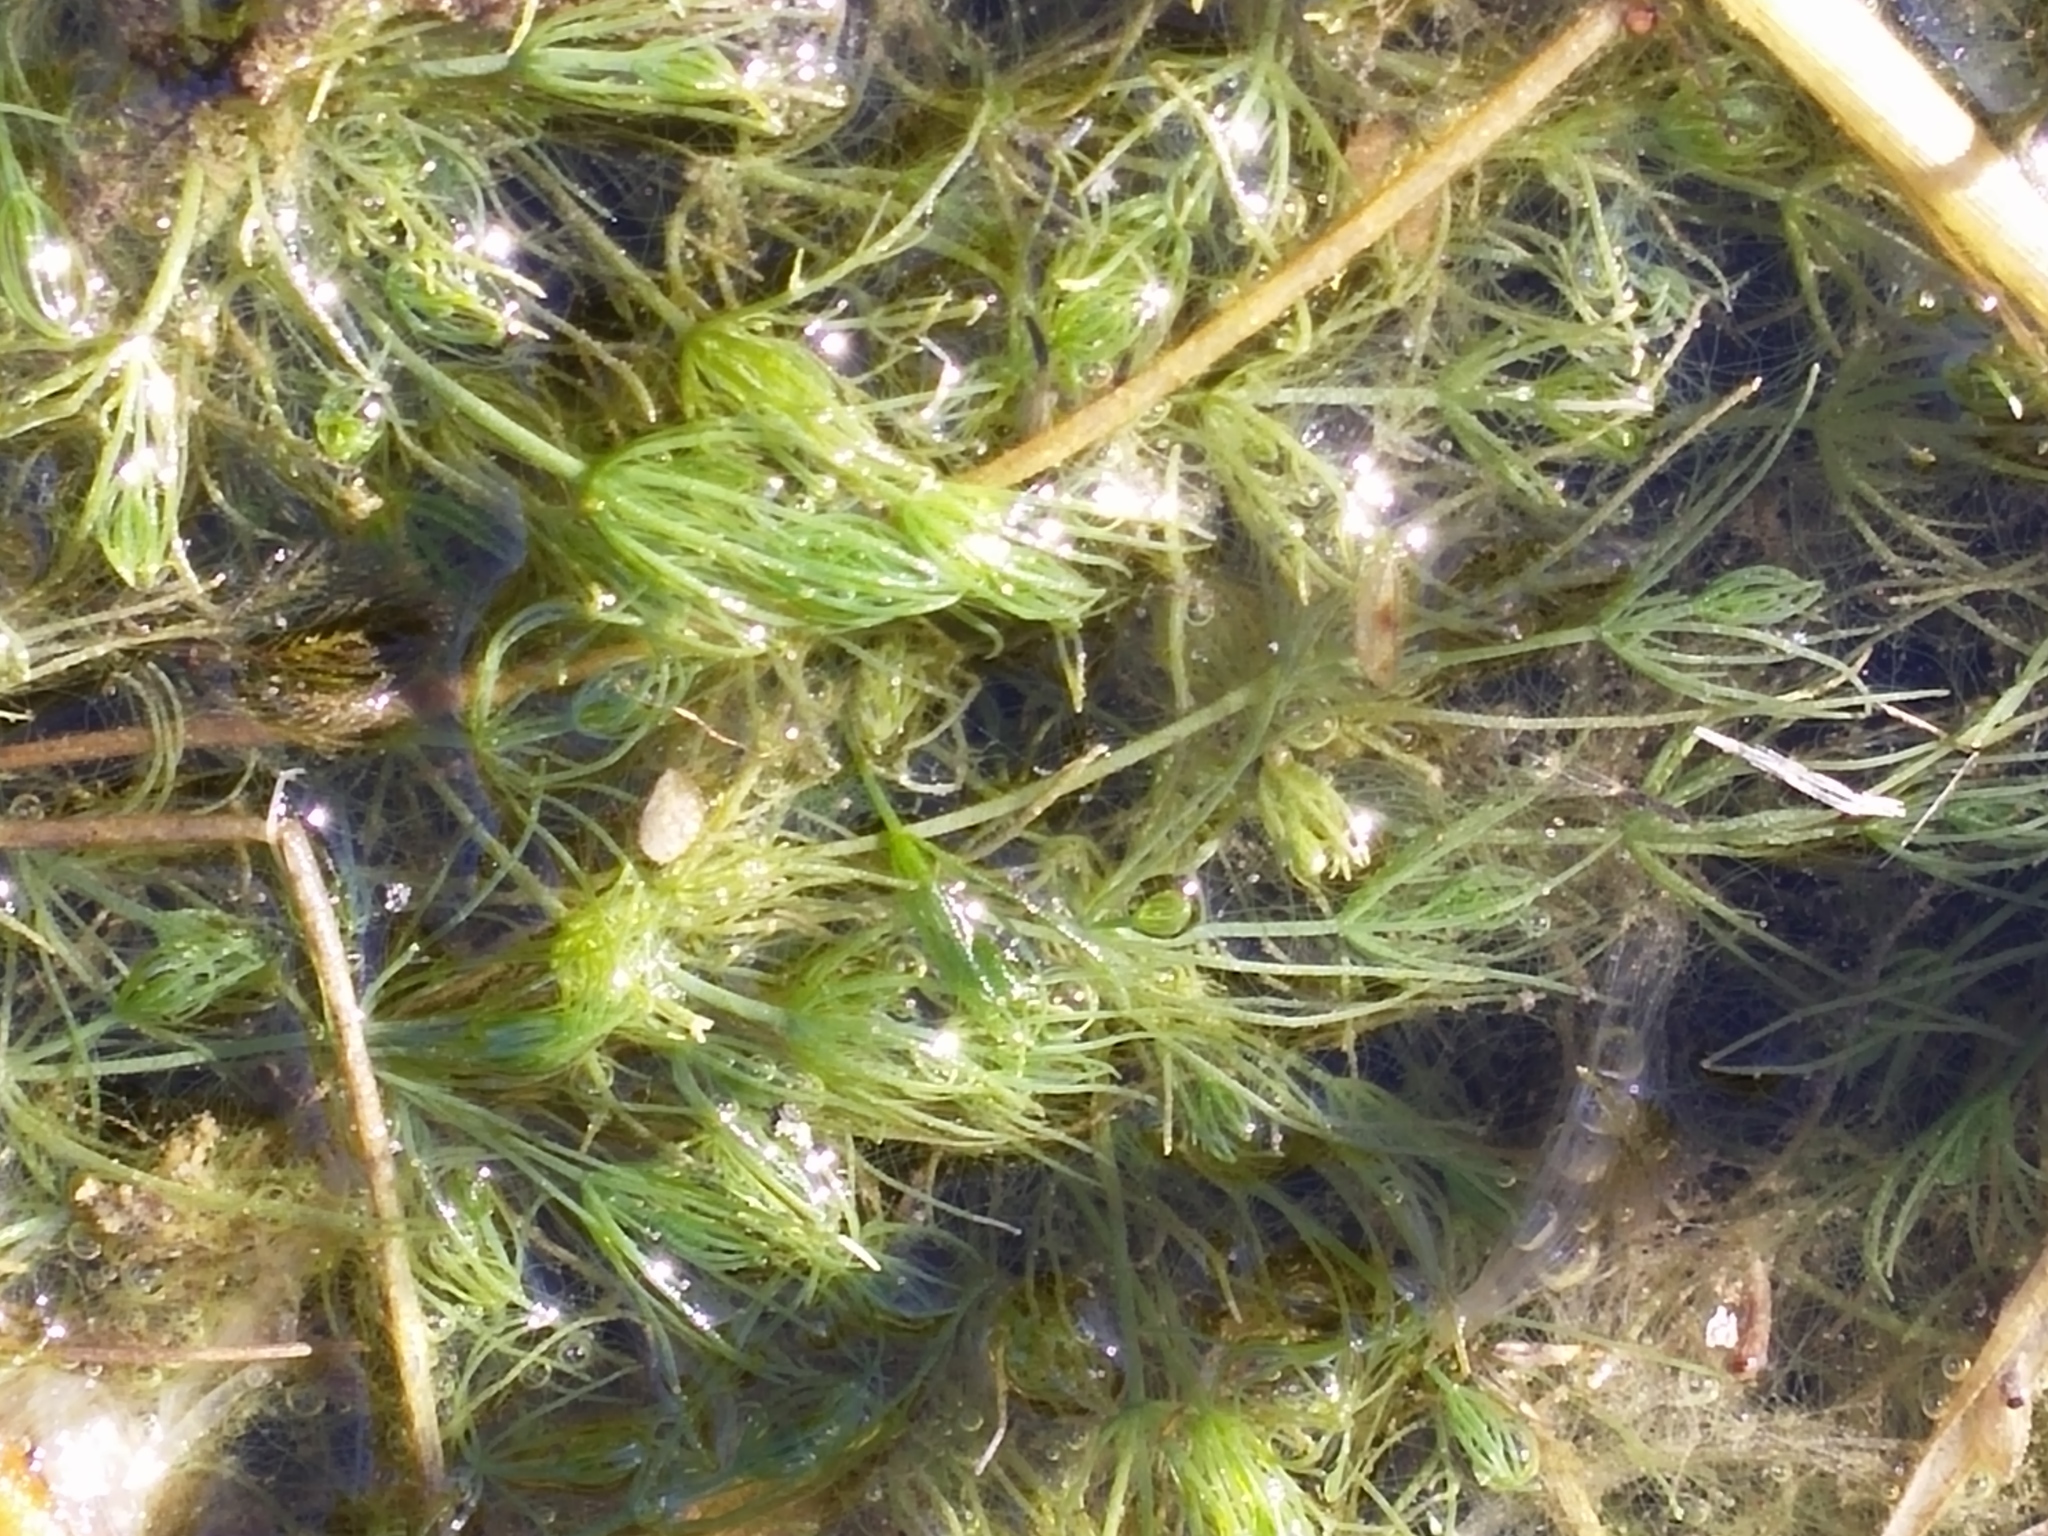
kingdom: Plantae
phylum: Charophyta
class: Charophyceae
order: Charales
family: Characeae
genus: Chara
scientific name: Chara vulgaris
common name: Common stonewort
